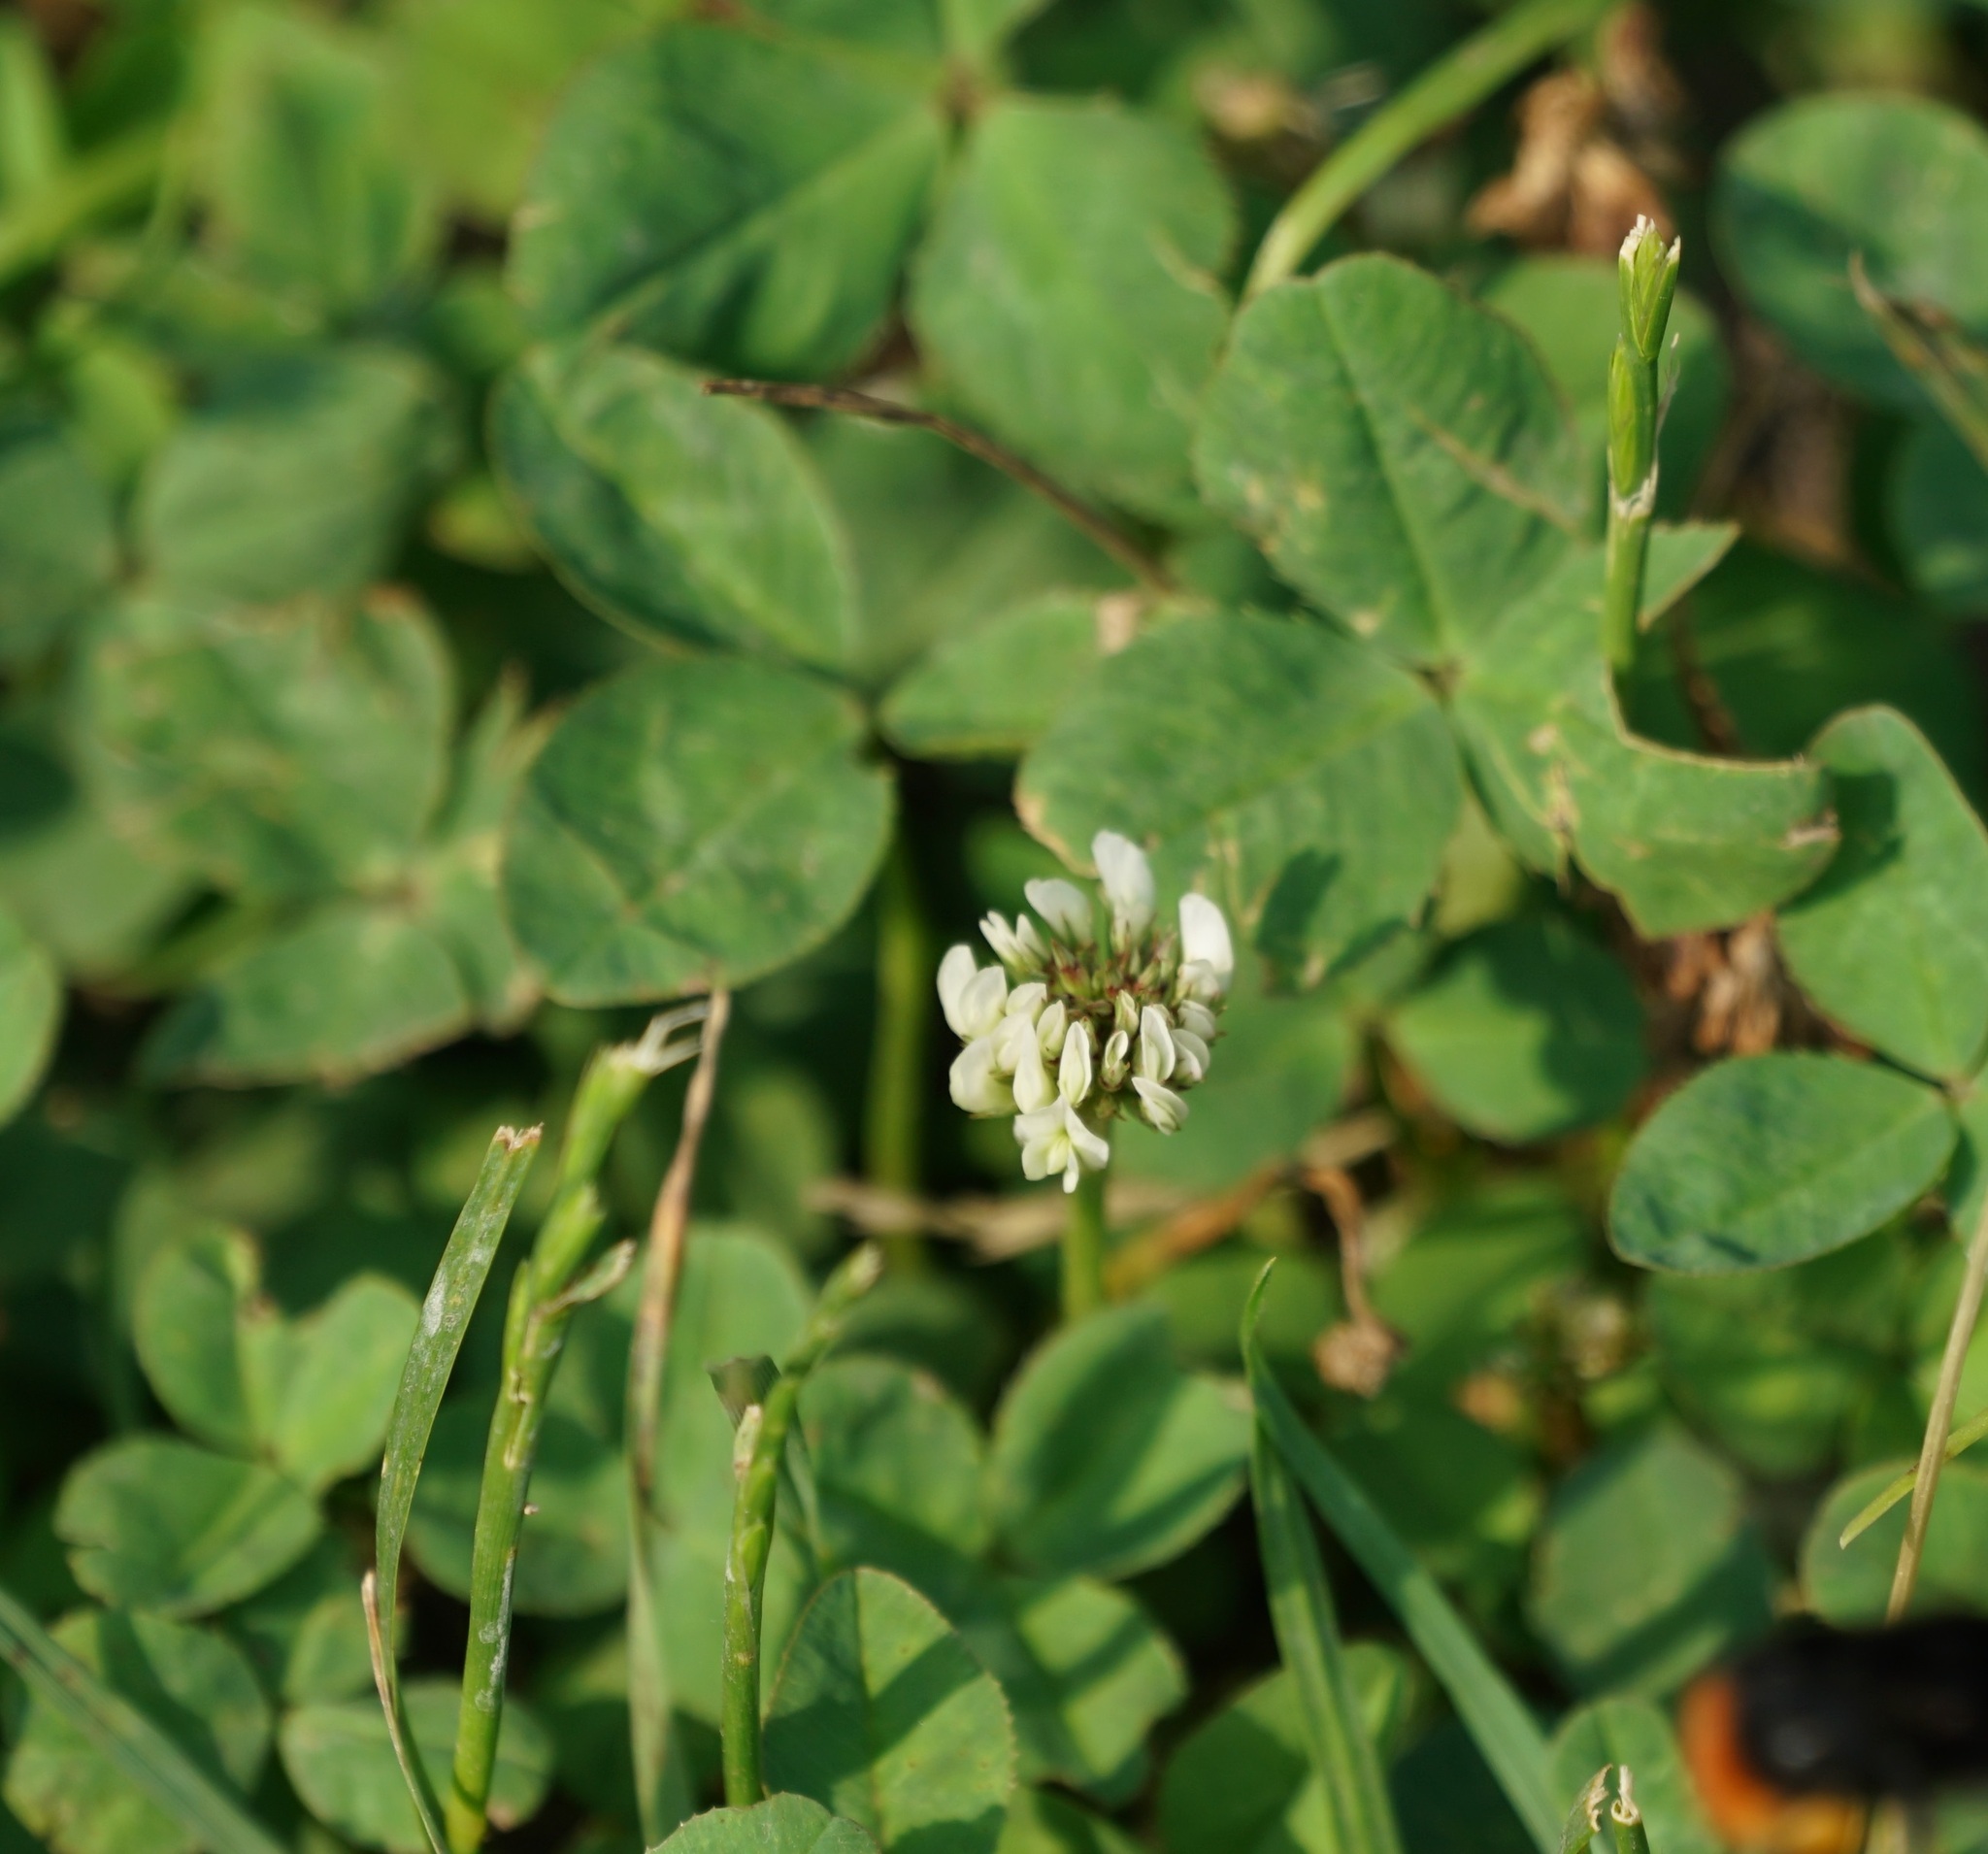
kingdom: Plantae
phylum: Tracheophyta
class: Magnoliopsida
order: Fabales
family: Fabaceae
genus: Trifolium
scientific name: Trifolium repens
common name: White clover
